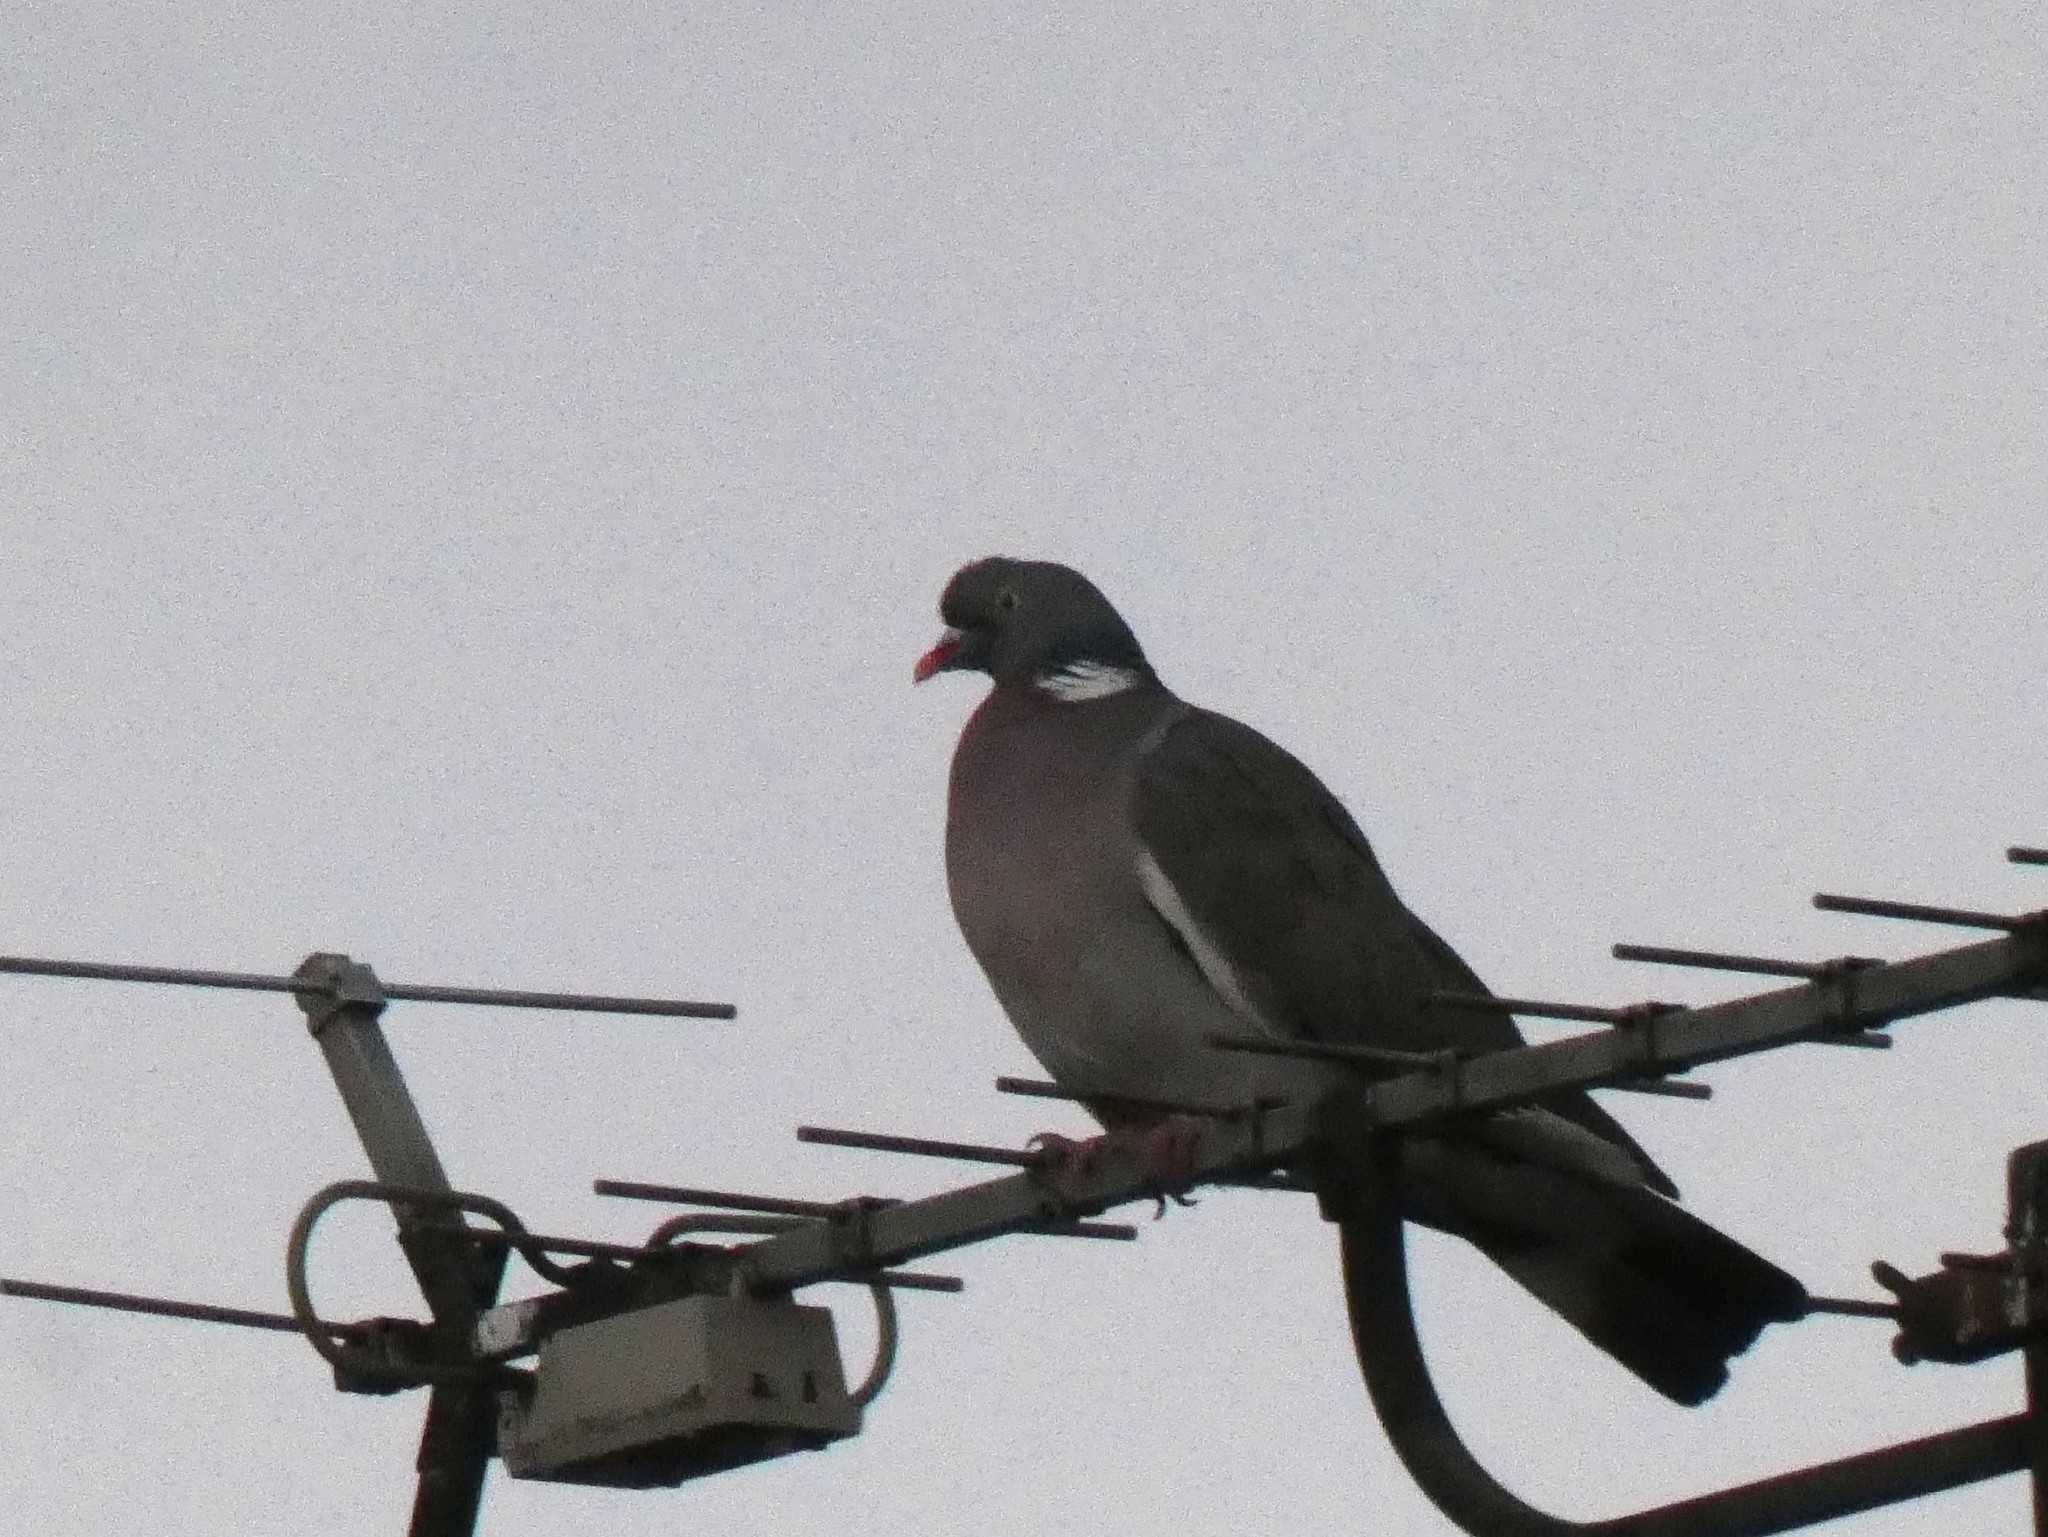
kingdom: Animalia
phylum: Chordata
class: Aves
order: Columbiformes
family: Columbidae
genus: Columba
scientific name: Columba palumbus
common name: Common wood pigeon
